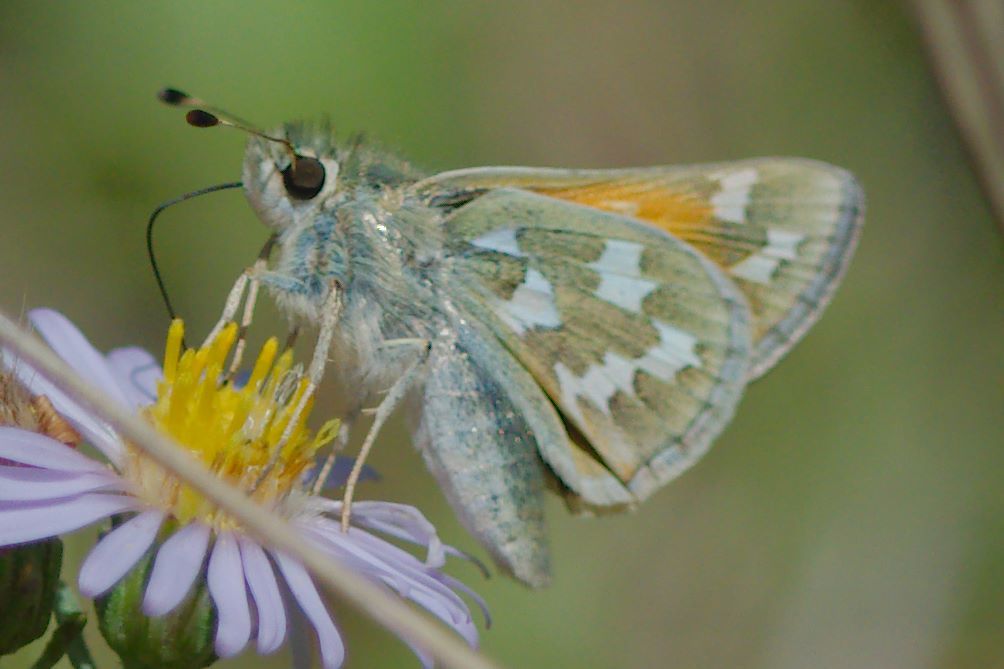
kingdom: Animalia
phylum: Arthropoda
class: Insecta
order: Lepidoptera
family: Hesperiidae
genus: Hesperia
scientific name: Hesperia juba
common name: Juba skipper
